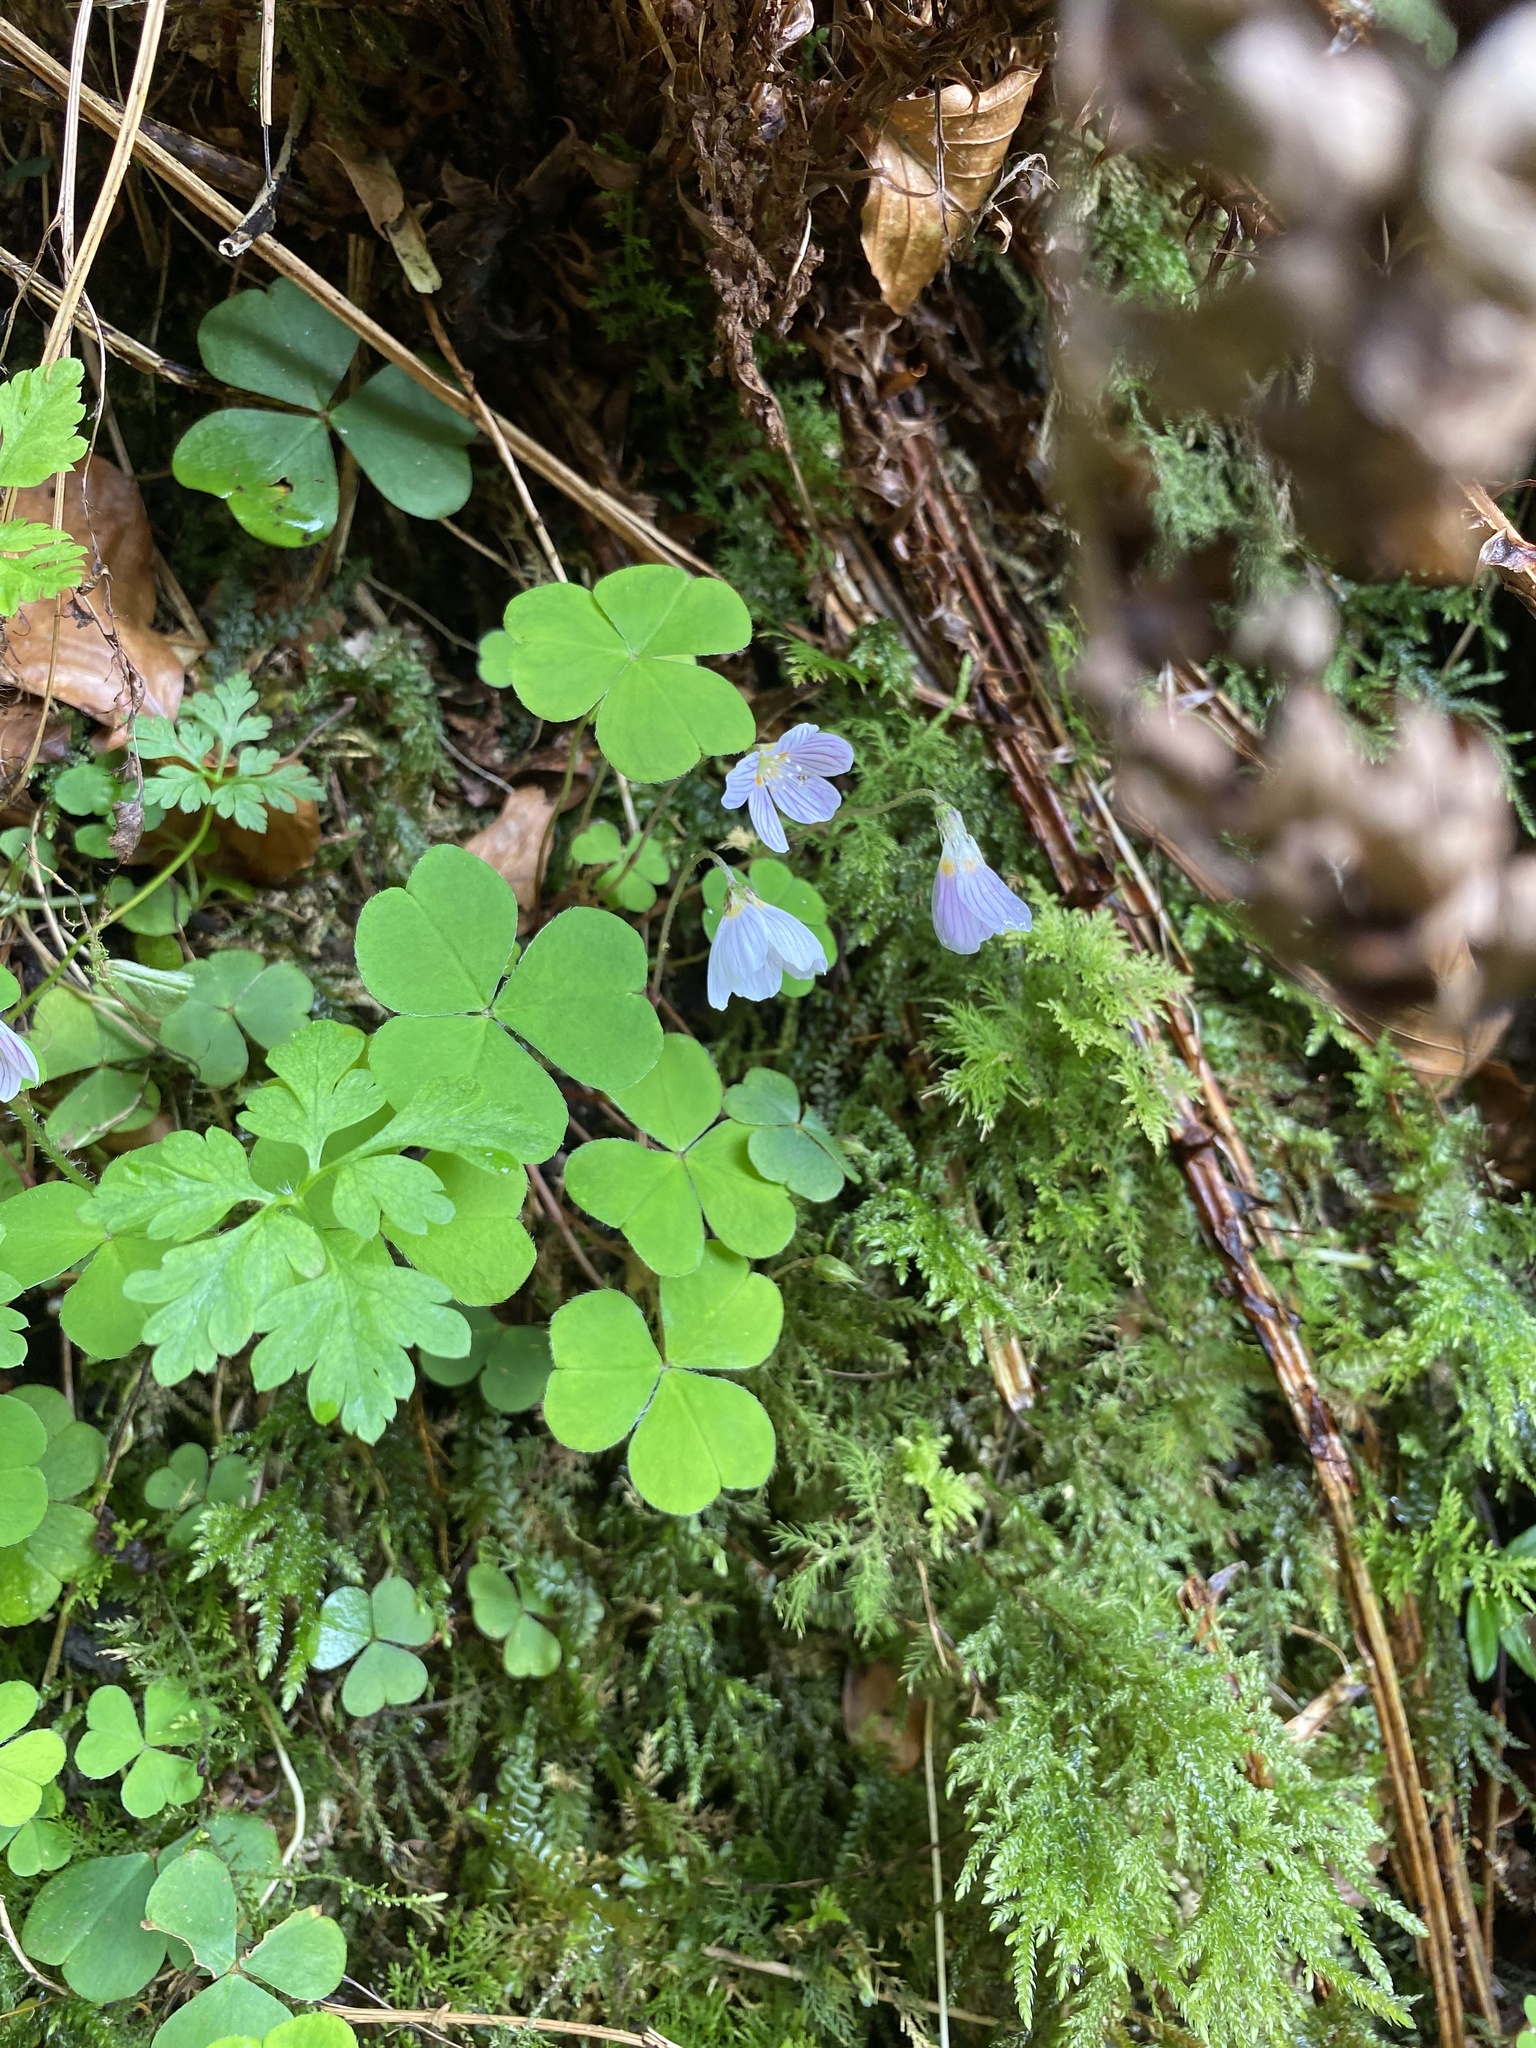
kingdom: Plantae
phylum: Tracheophyta
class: Magnoliopsida
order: Oxalidales
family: Oxalidaceae
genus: Oxalis
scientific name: Oxalis acetosella
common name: Wood-sorrel
